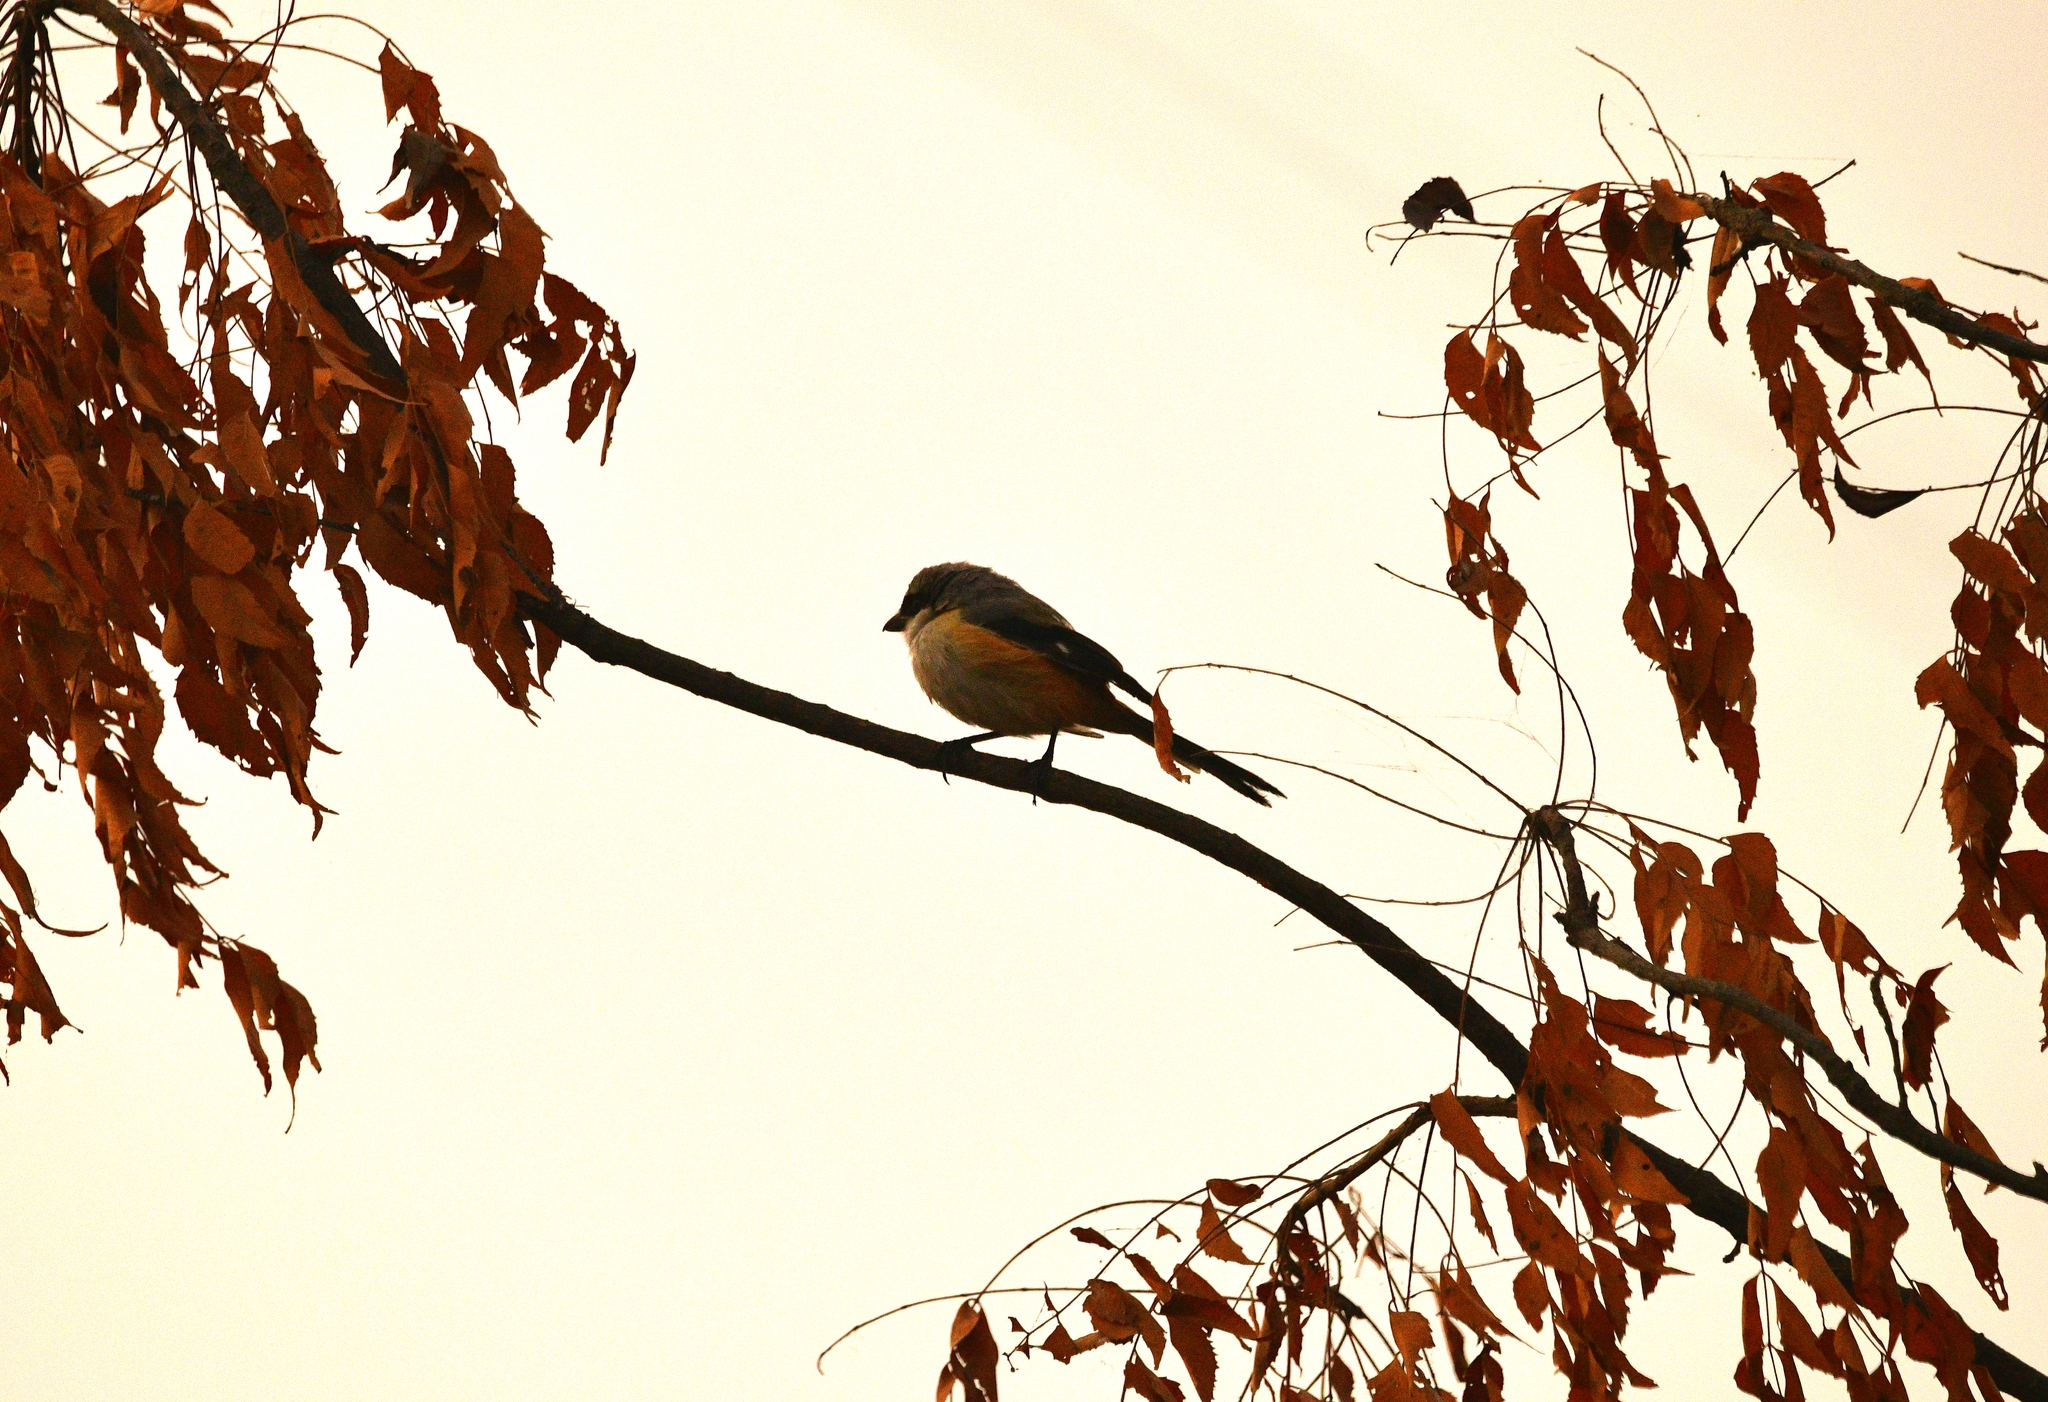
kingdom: Animalia
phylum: Chordata
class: Aves
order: Passeriformes
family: Laniidae
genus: Lanius
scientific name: Lanius schach
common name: Long-tailed shrike
